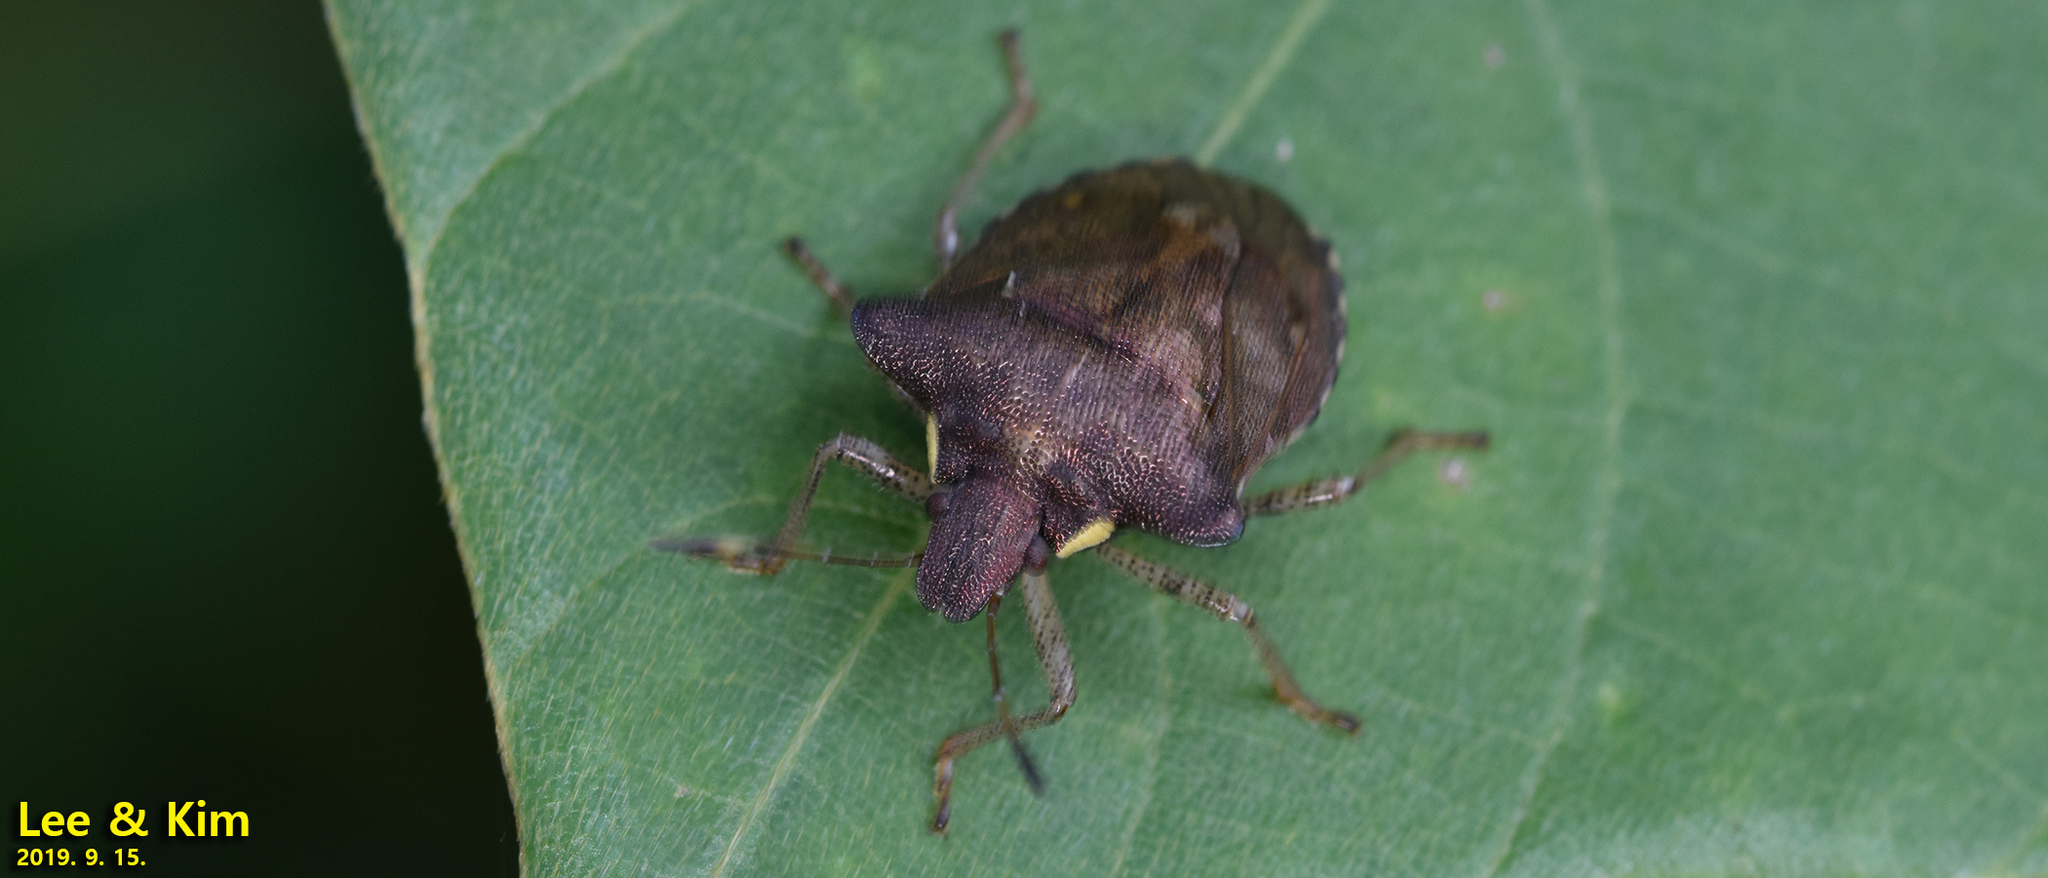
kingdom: Animalia
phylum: Arthropoda
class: Insecta
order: Hemiptera
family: Pentatomidae
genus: Carbula
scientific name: Carbula putoni
